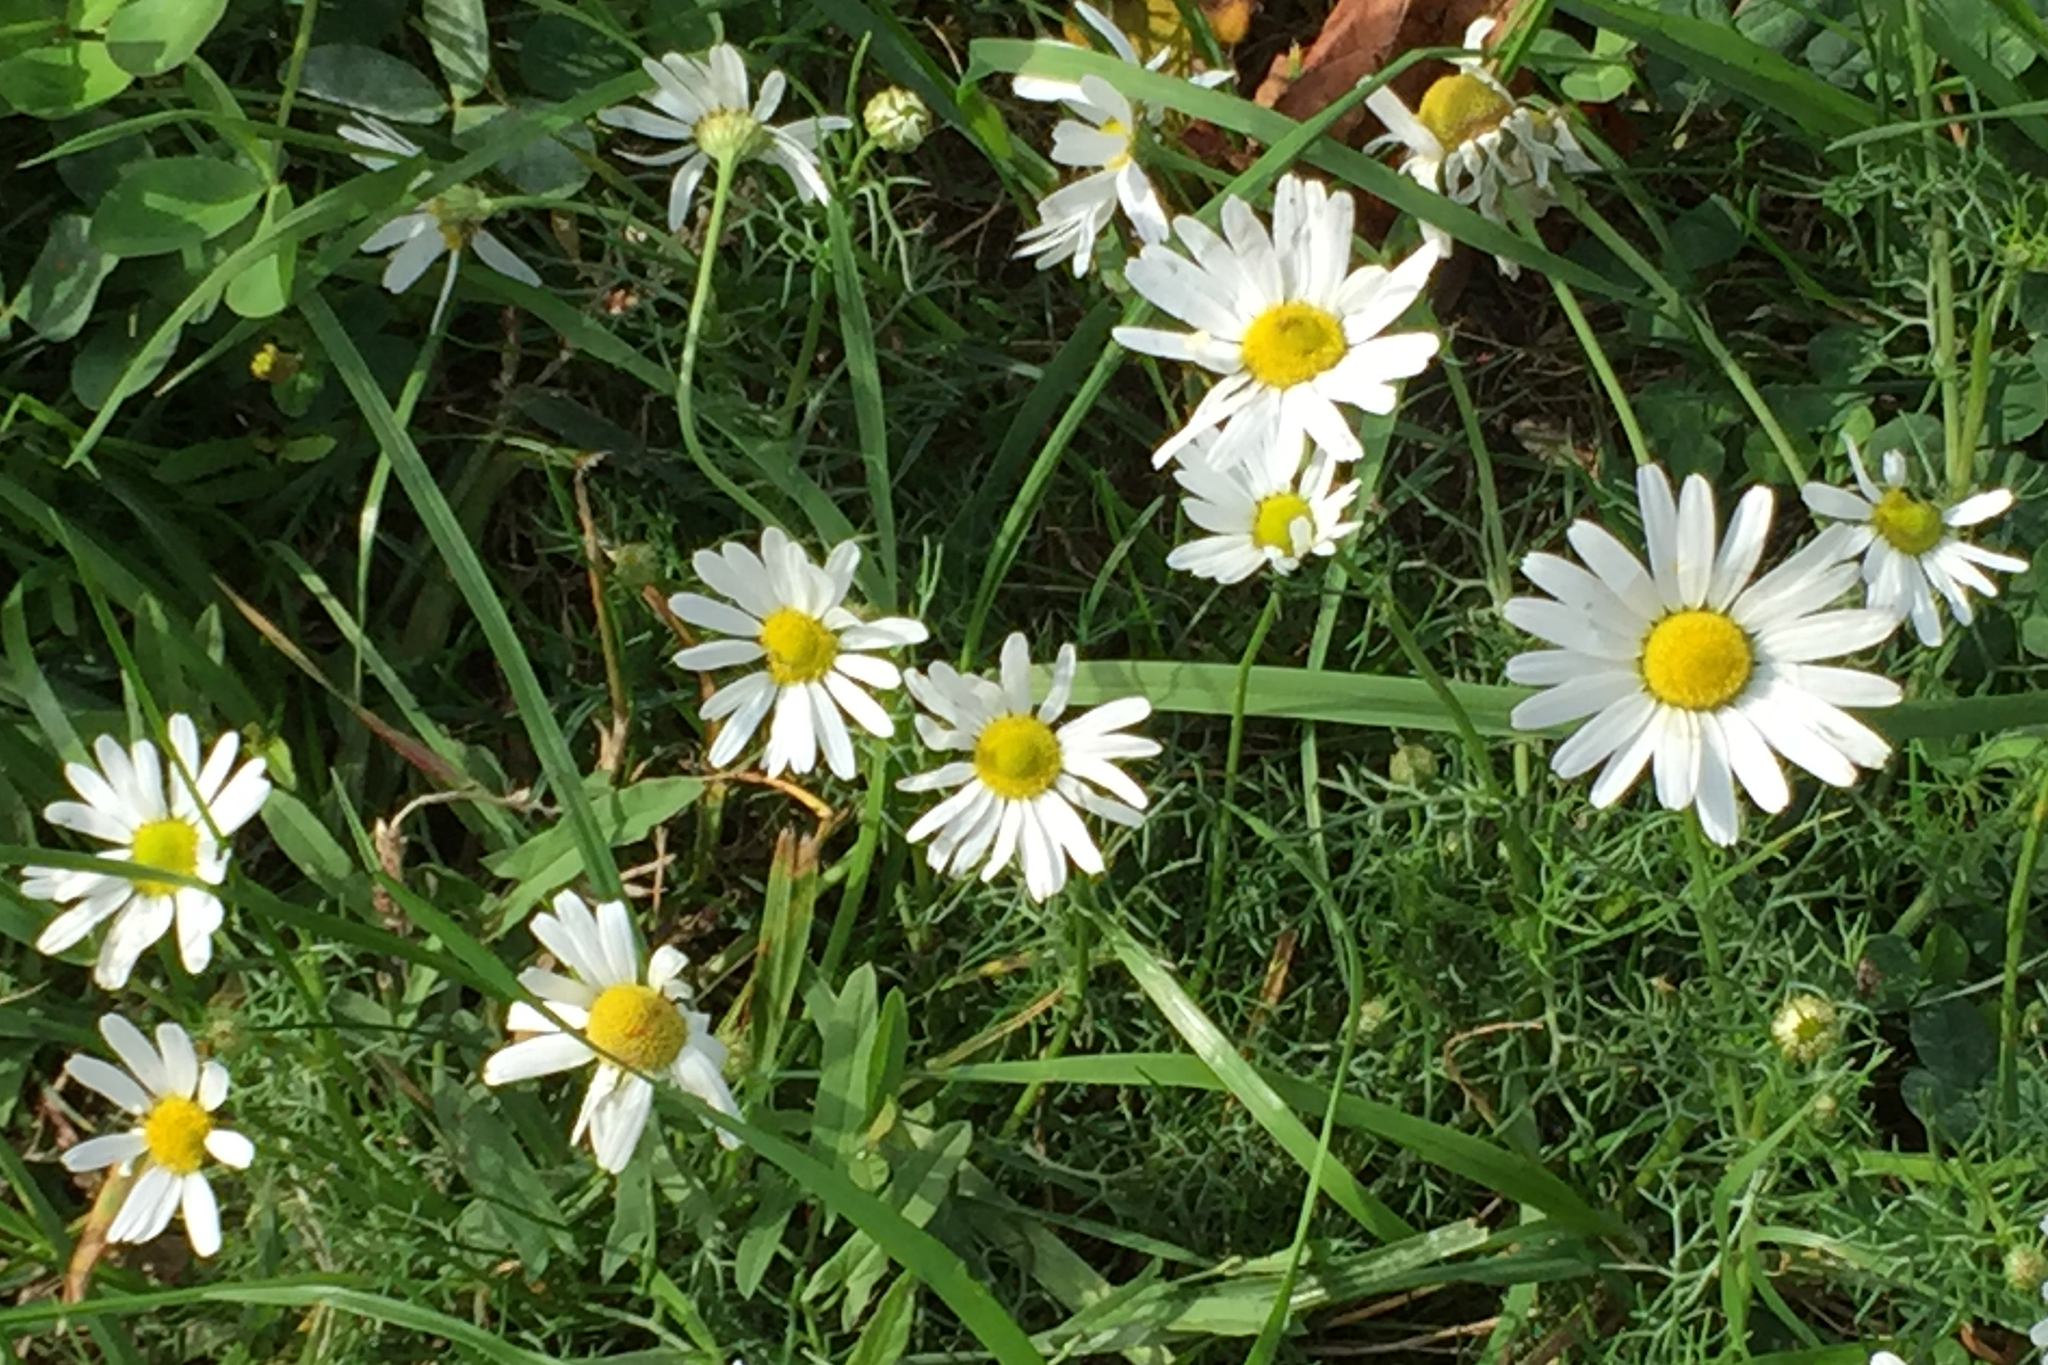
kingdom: Plantae
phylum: Tracheophyta
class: Magnoliopsida
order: Asterales
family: Asteraceae
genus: Anthemis
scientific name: Anthemis cotula
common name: Stinking chamomile
